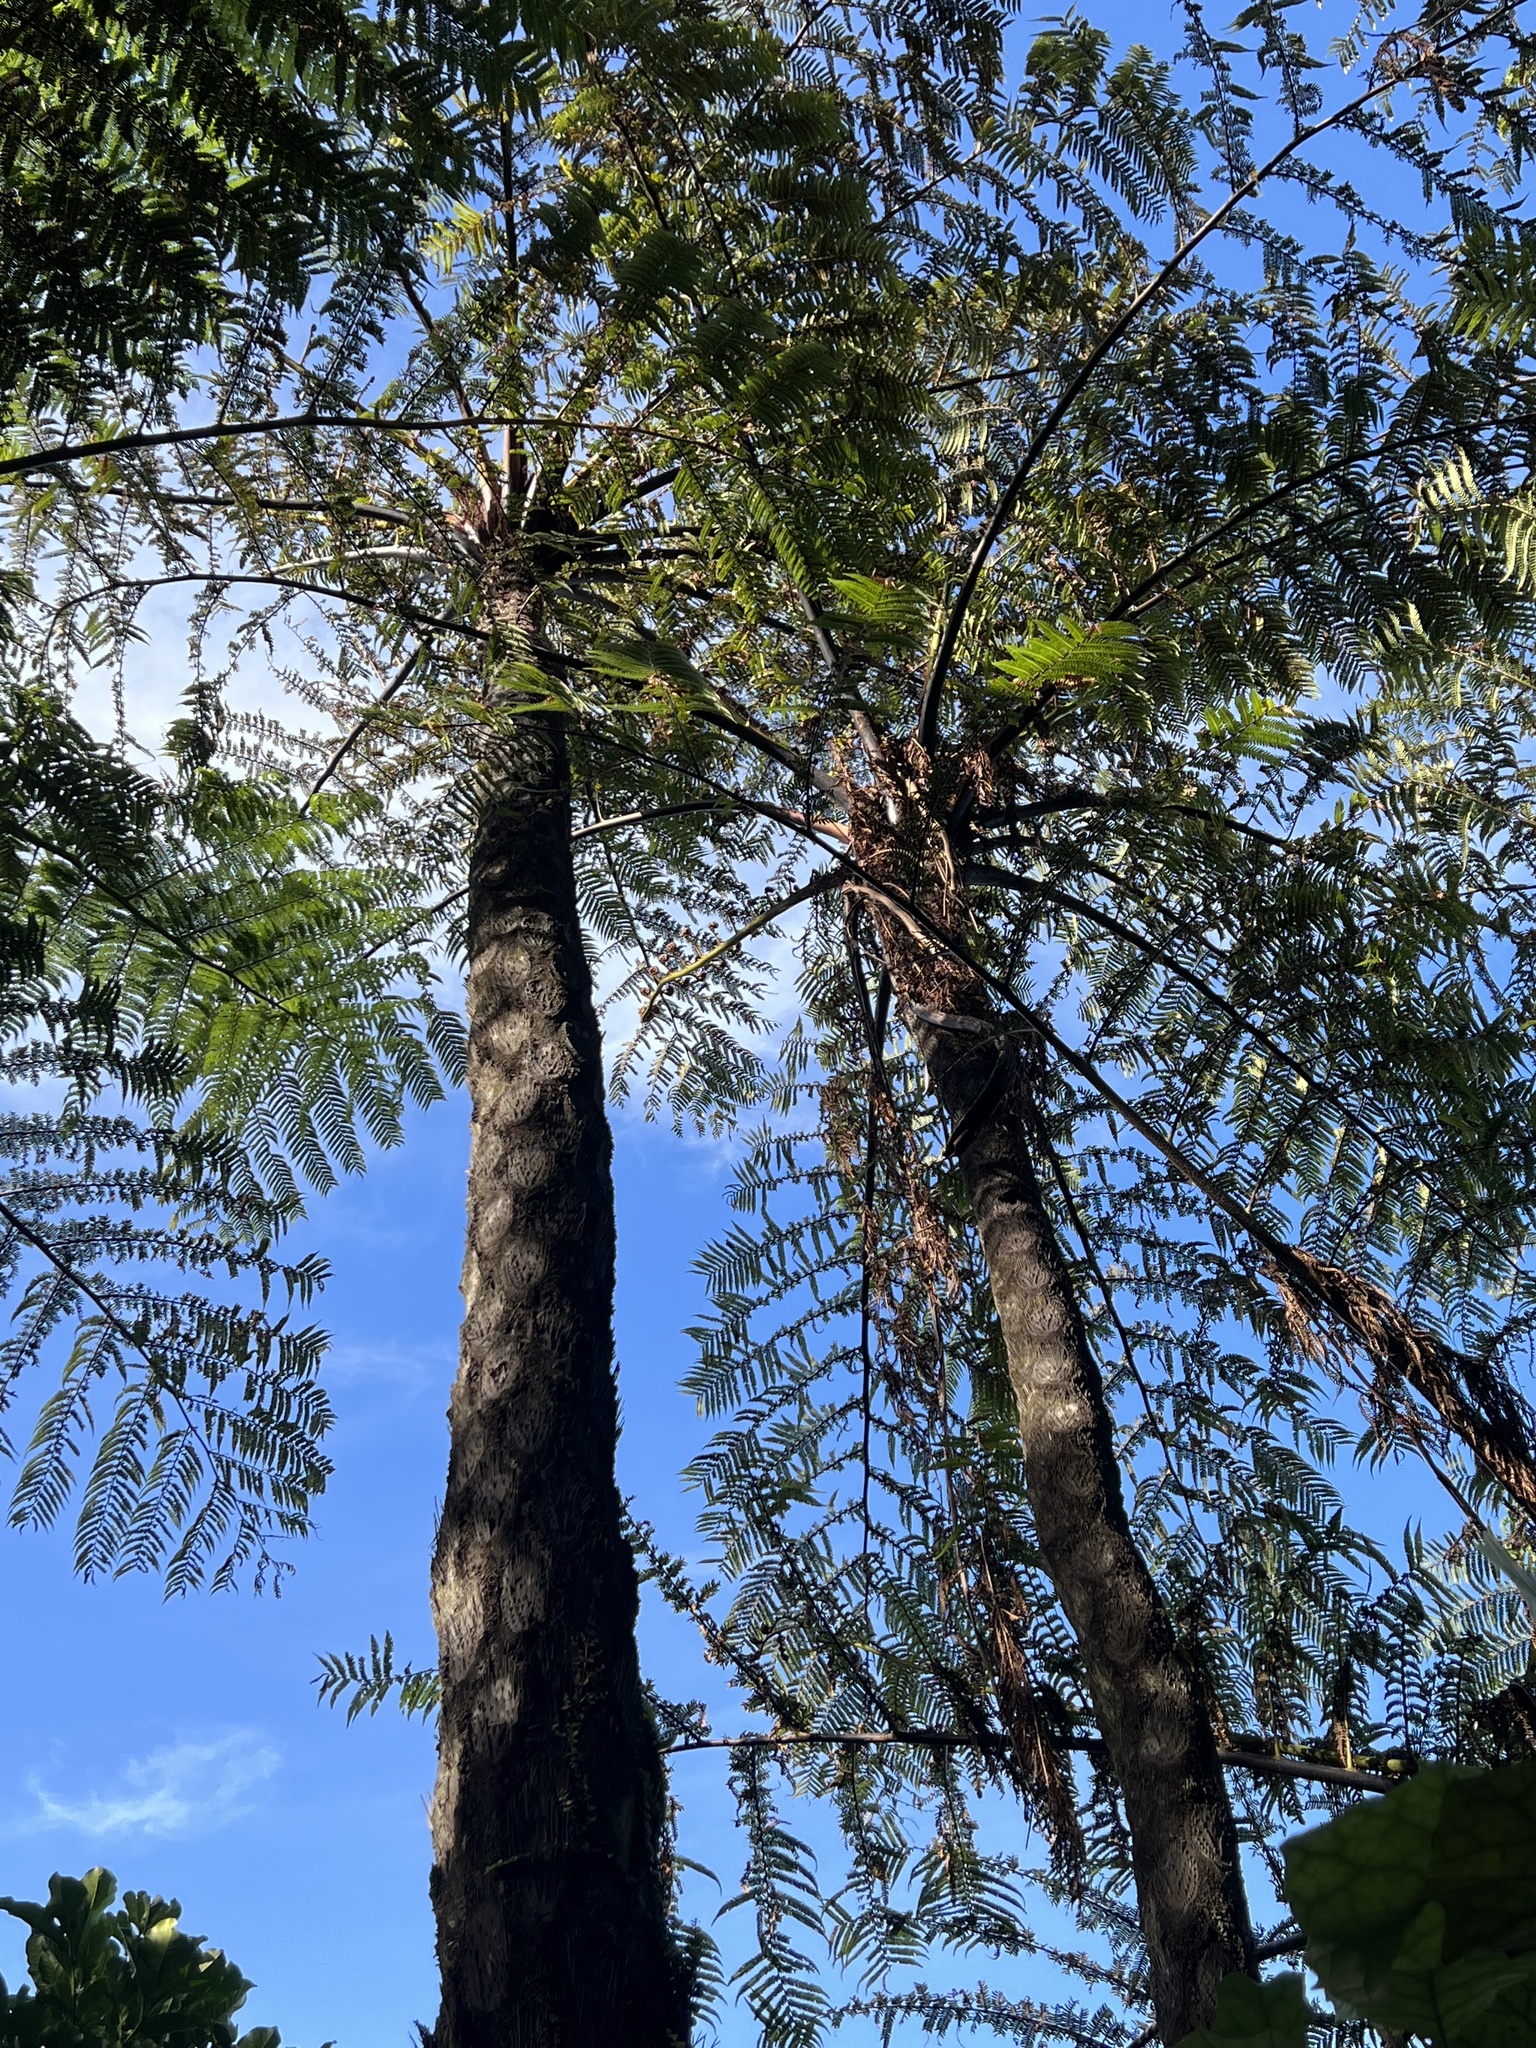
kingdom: Plantae
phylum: Tracheophyta
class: Polypodiopsida
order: Cyatheales
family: Cyatheaceae
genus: Sphaeropteris
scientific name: Sphaeropteris medullaris
